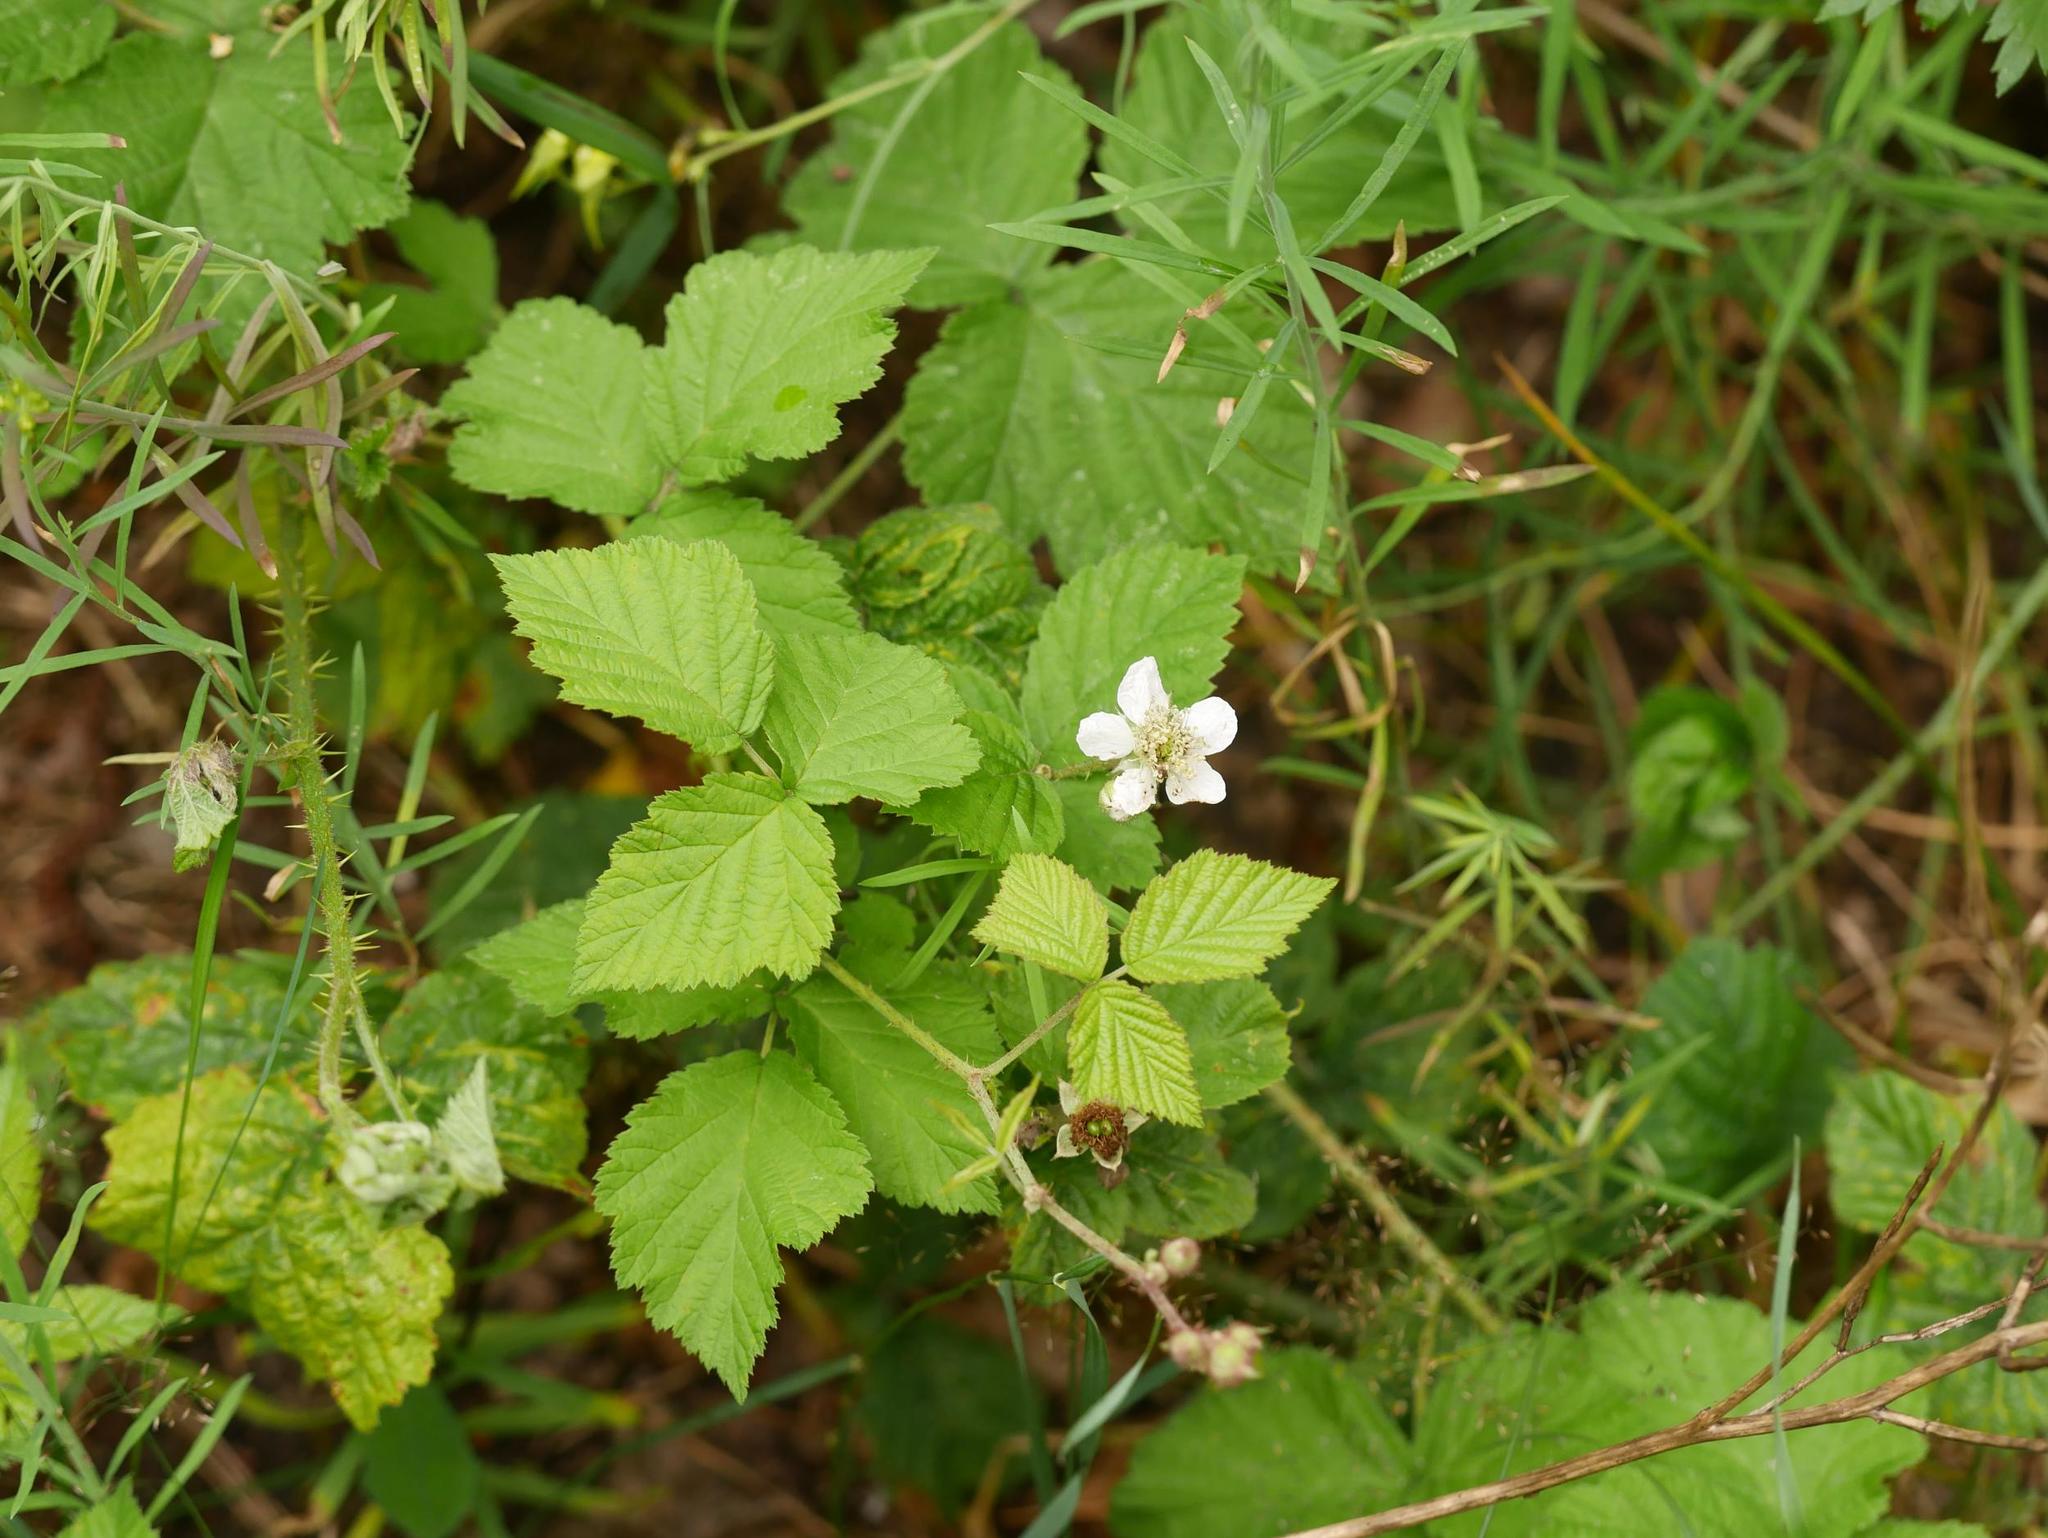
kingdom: Plantae
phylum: Tracheophyta
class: Magnoliopsida
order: Rosales
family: Rosaceae
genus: Rubus
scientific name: Rubus caesius
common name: Dewberry
